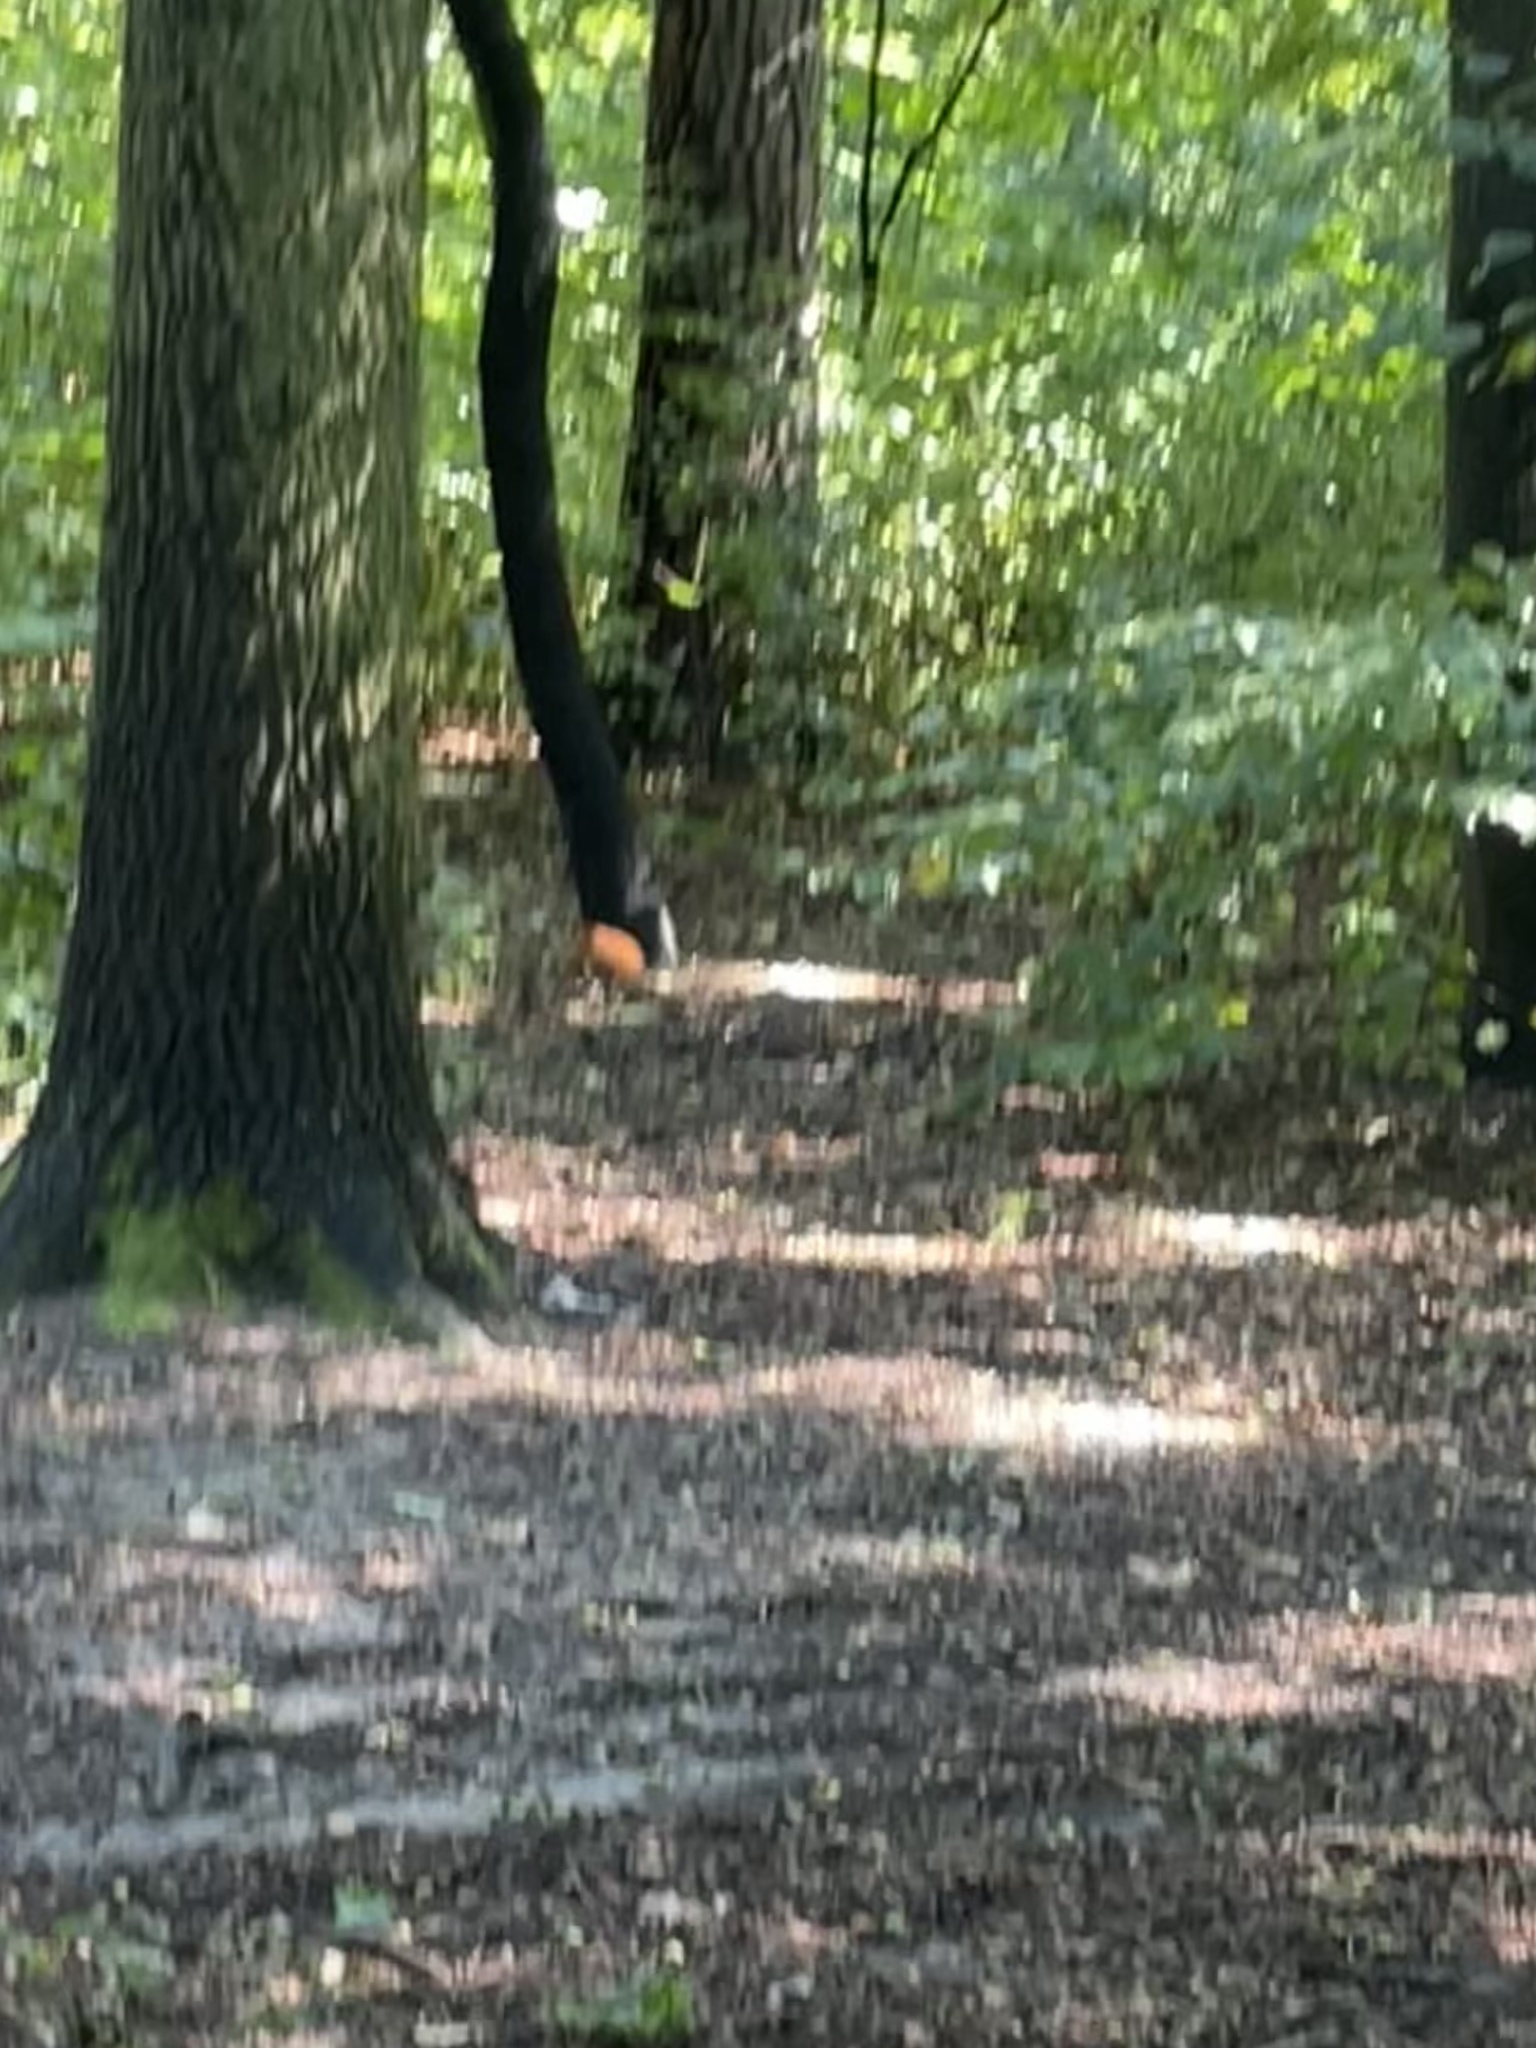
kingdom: Animalia
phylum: Chordata
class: Mammalia
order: Rodentia
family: Sciuridae
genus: Sciurus
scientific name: Sciurus vulgaris
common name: Eurasian red squirrel
